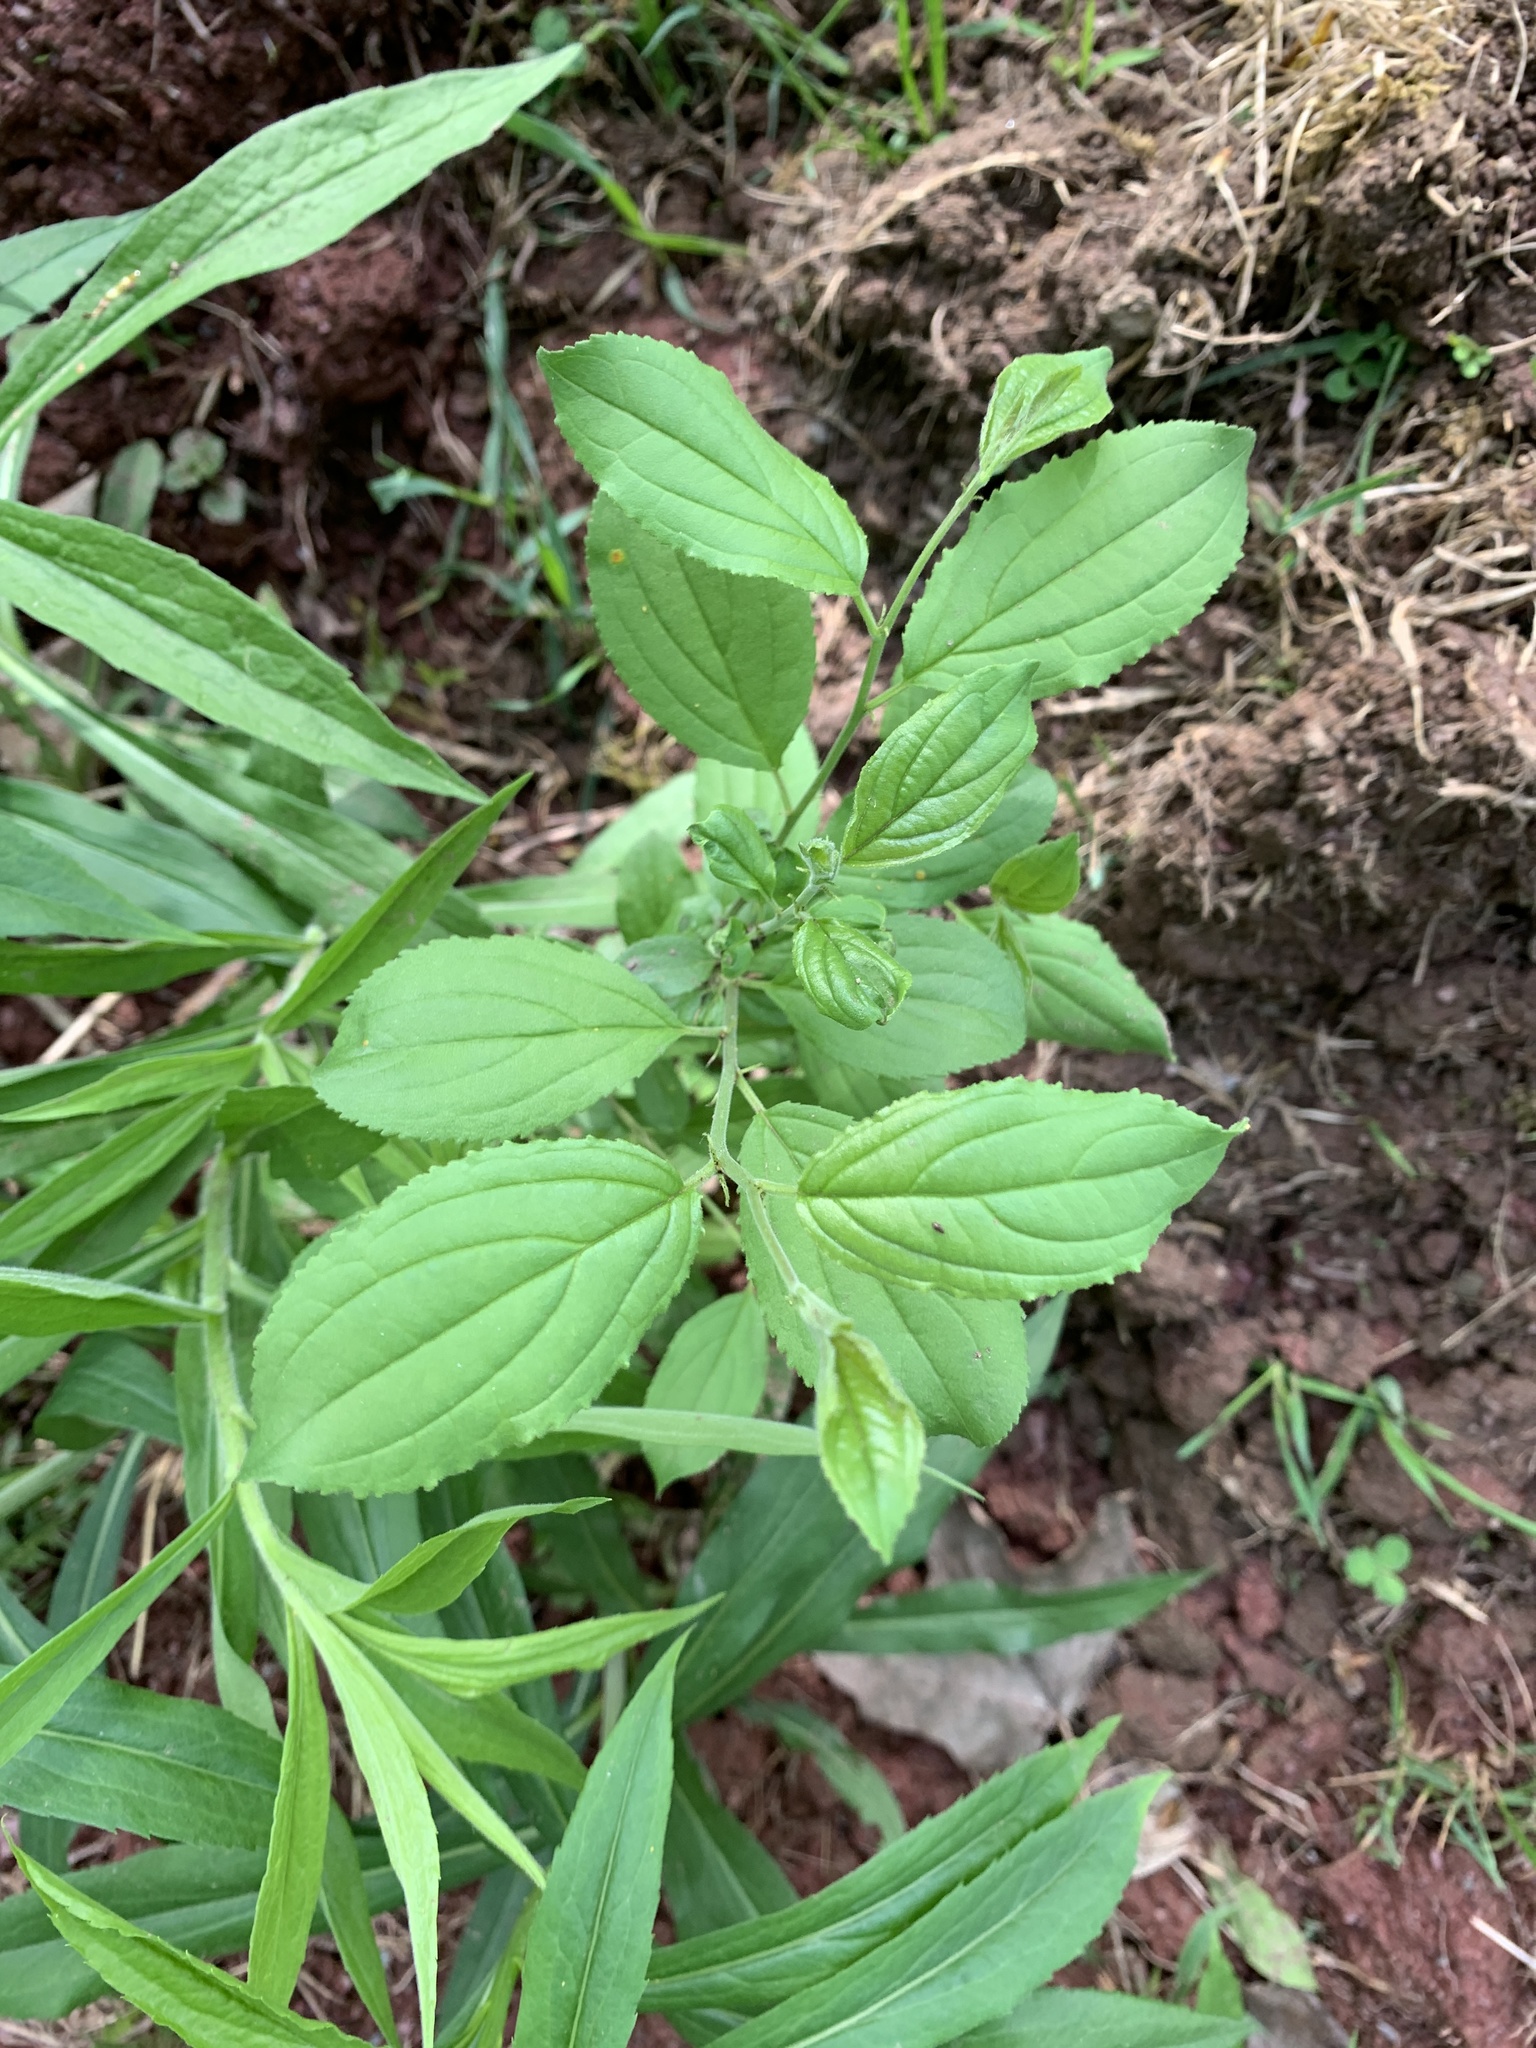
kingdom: Plantae
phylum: Tracheophyta
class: Magnoliopsida
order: Rosales
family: Rhamnaceae
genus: Rhamnus
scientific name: Rhamnus cathartica
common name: Common buckthorn
